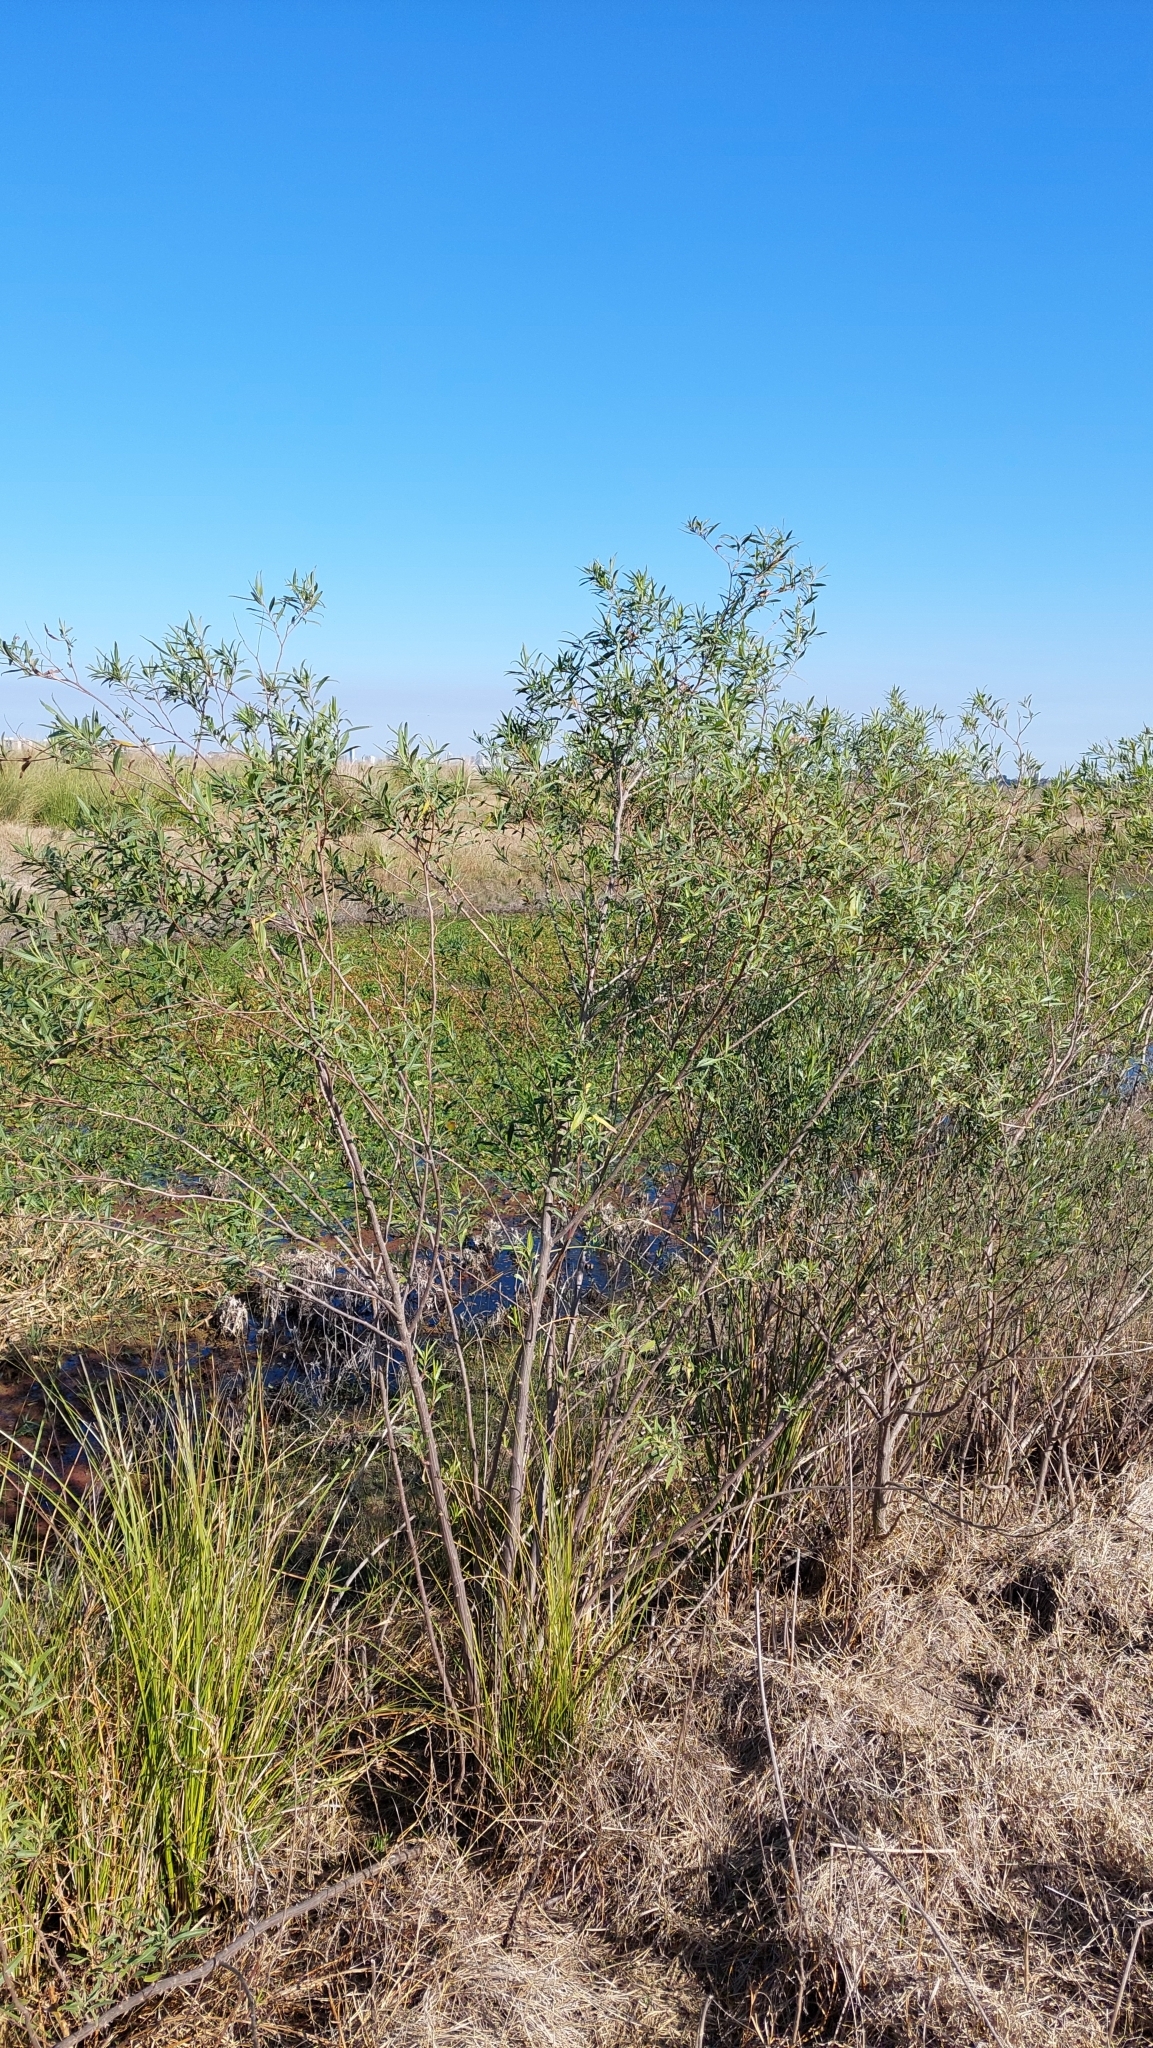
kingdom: Plantae
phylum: Tracheophyta
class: Magnoliopsida
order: Asterales
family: Asteraceae
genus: Baccharis
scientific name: Baccharis salicifolia
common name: Sticky baccharis
